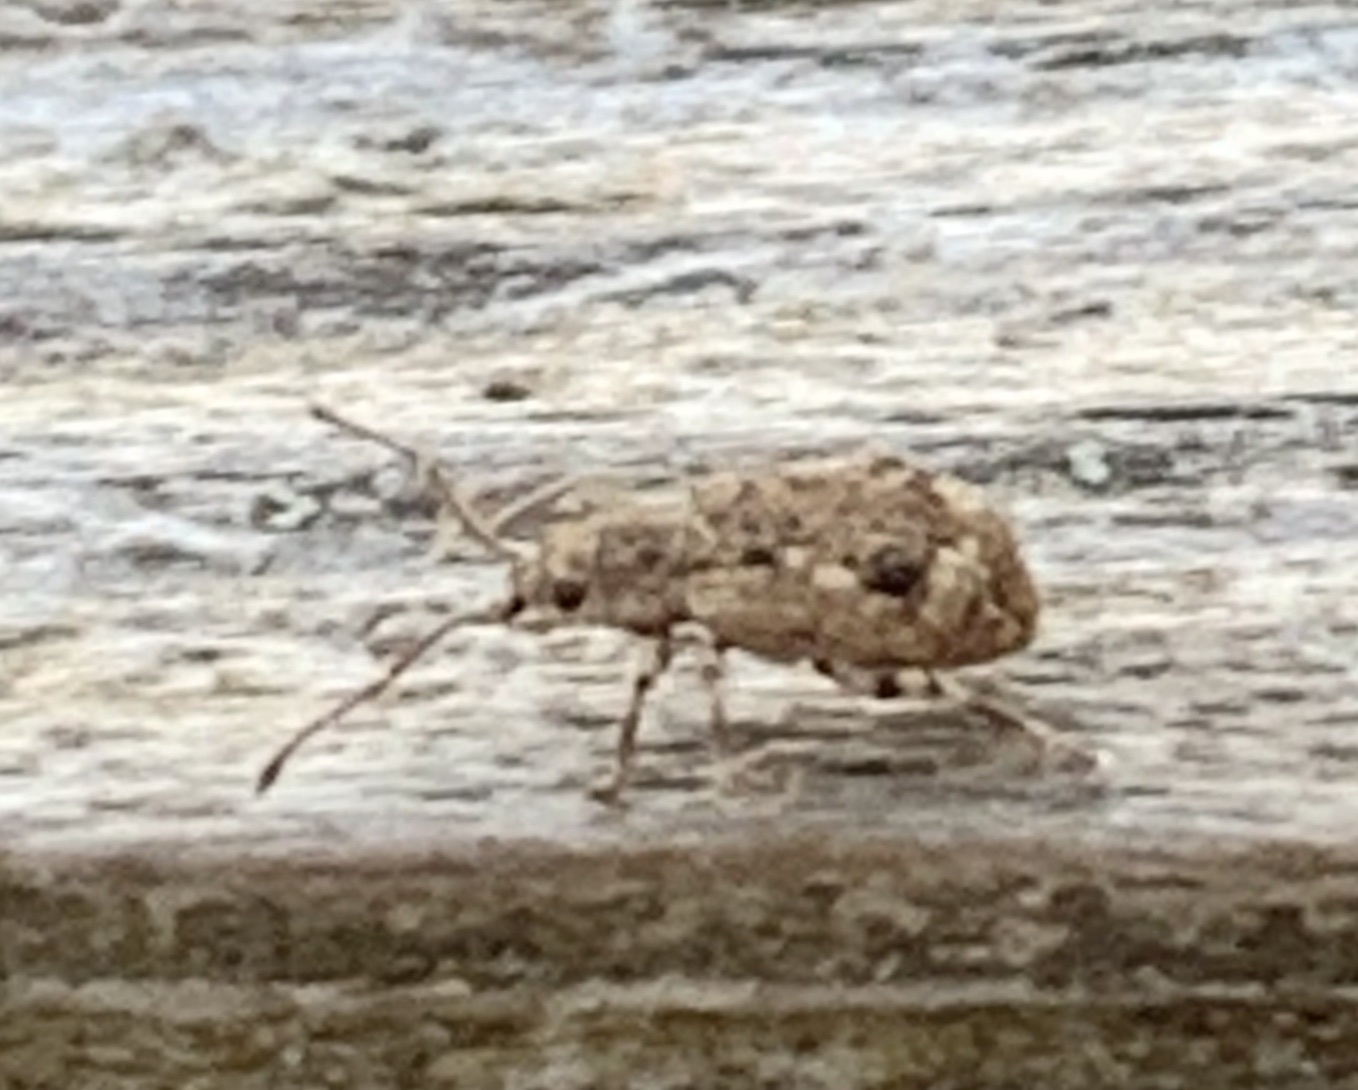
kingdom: Animalia
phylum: Arthropoda
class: Insecta
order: Coleoptera
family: Curculionidae
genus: Pseudoedophrys
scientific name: Pseudoedophrys hilleri
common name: Weevil
